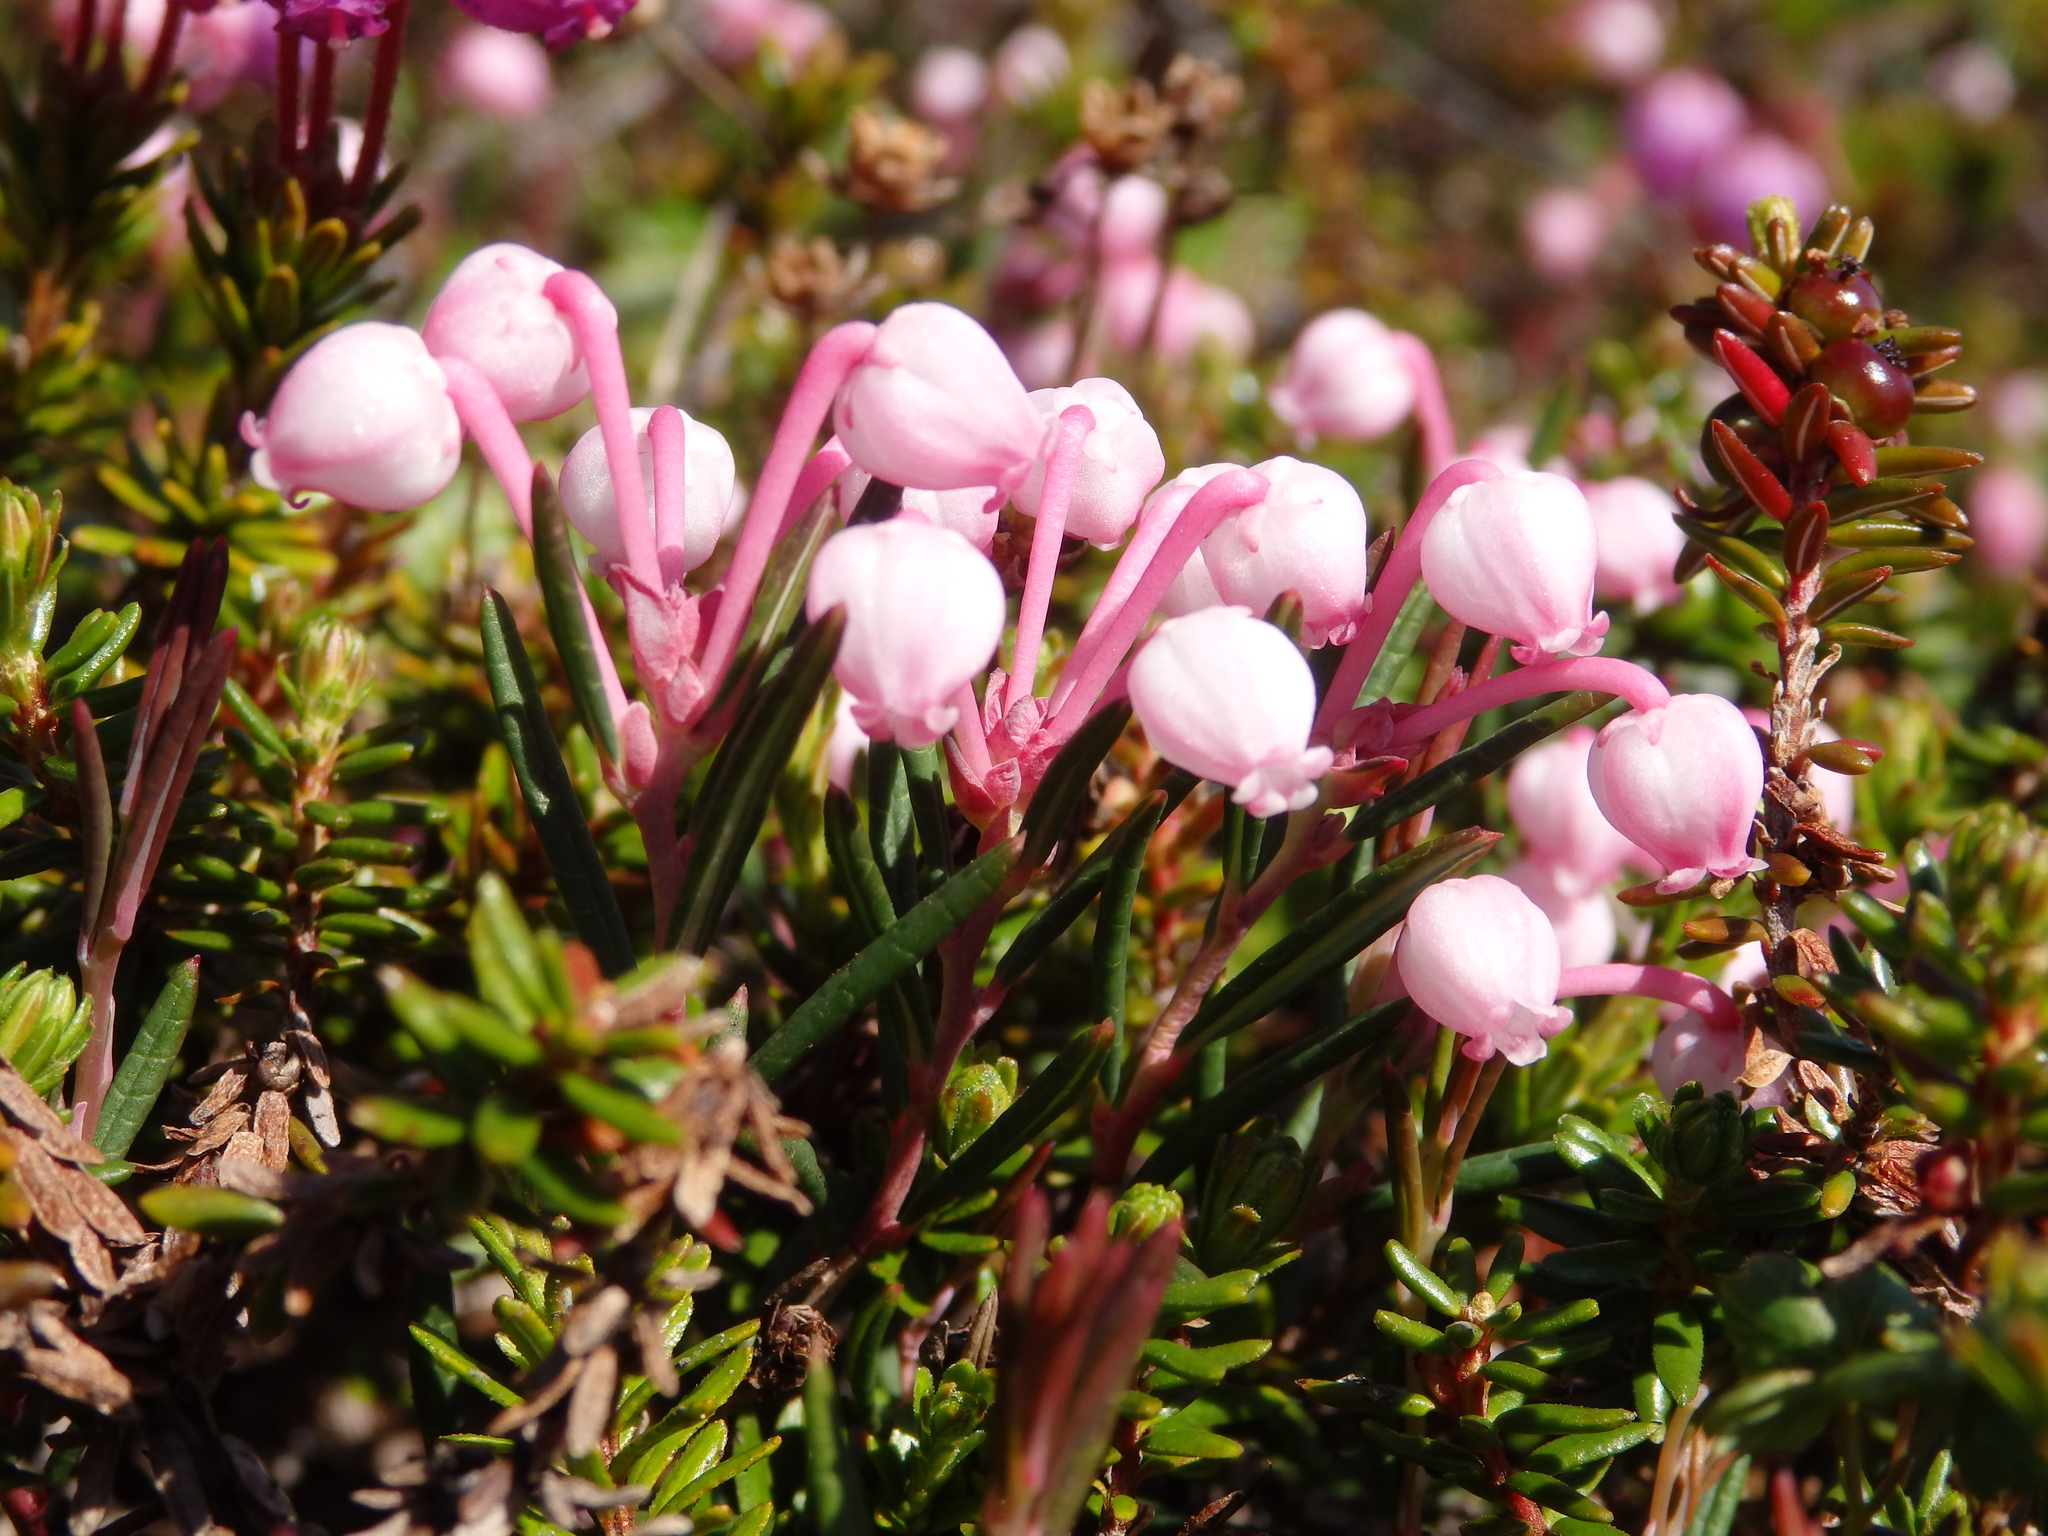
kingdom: Plantae
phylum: Tracheophyta
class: Magnoliopsida
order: Ericales
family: Ericaceae
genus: Andromeda
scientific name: Andromeda polifolia
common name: Bog-rosemary
